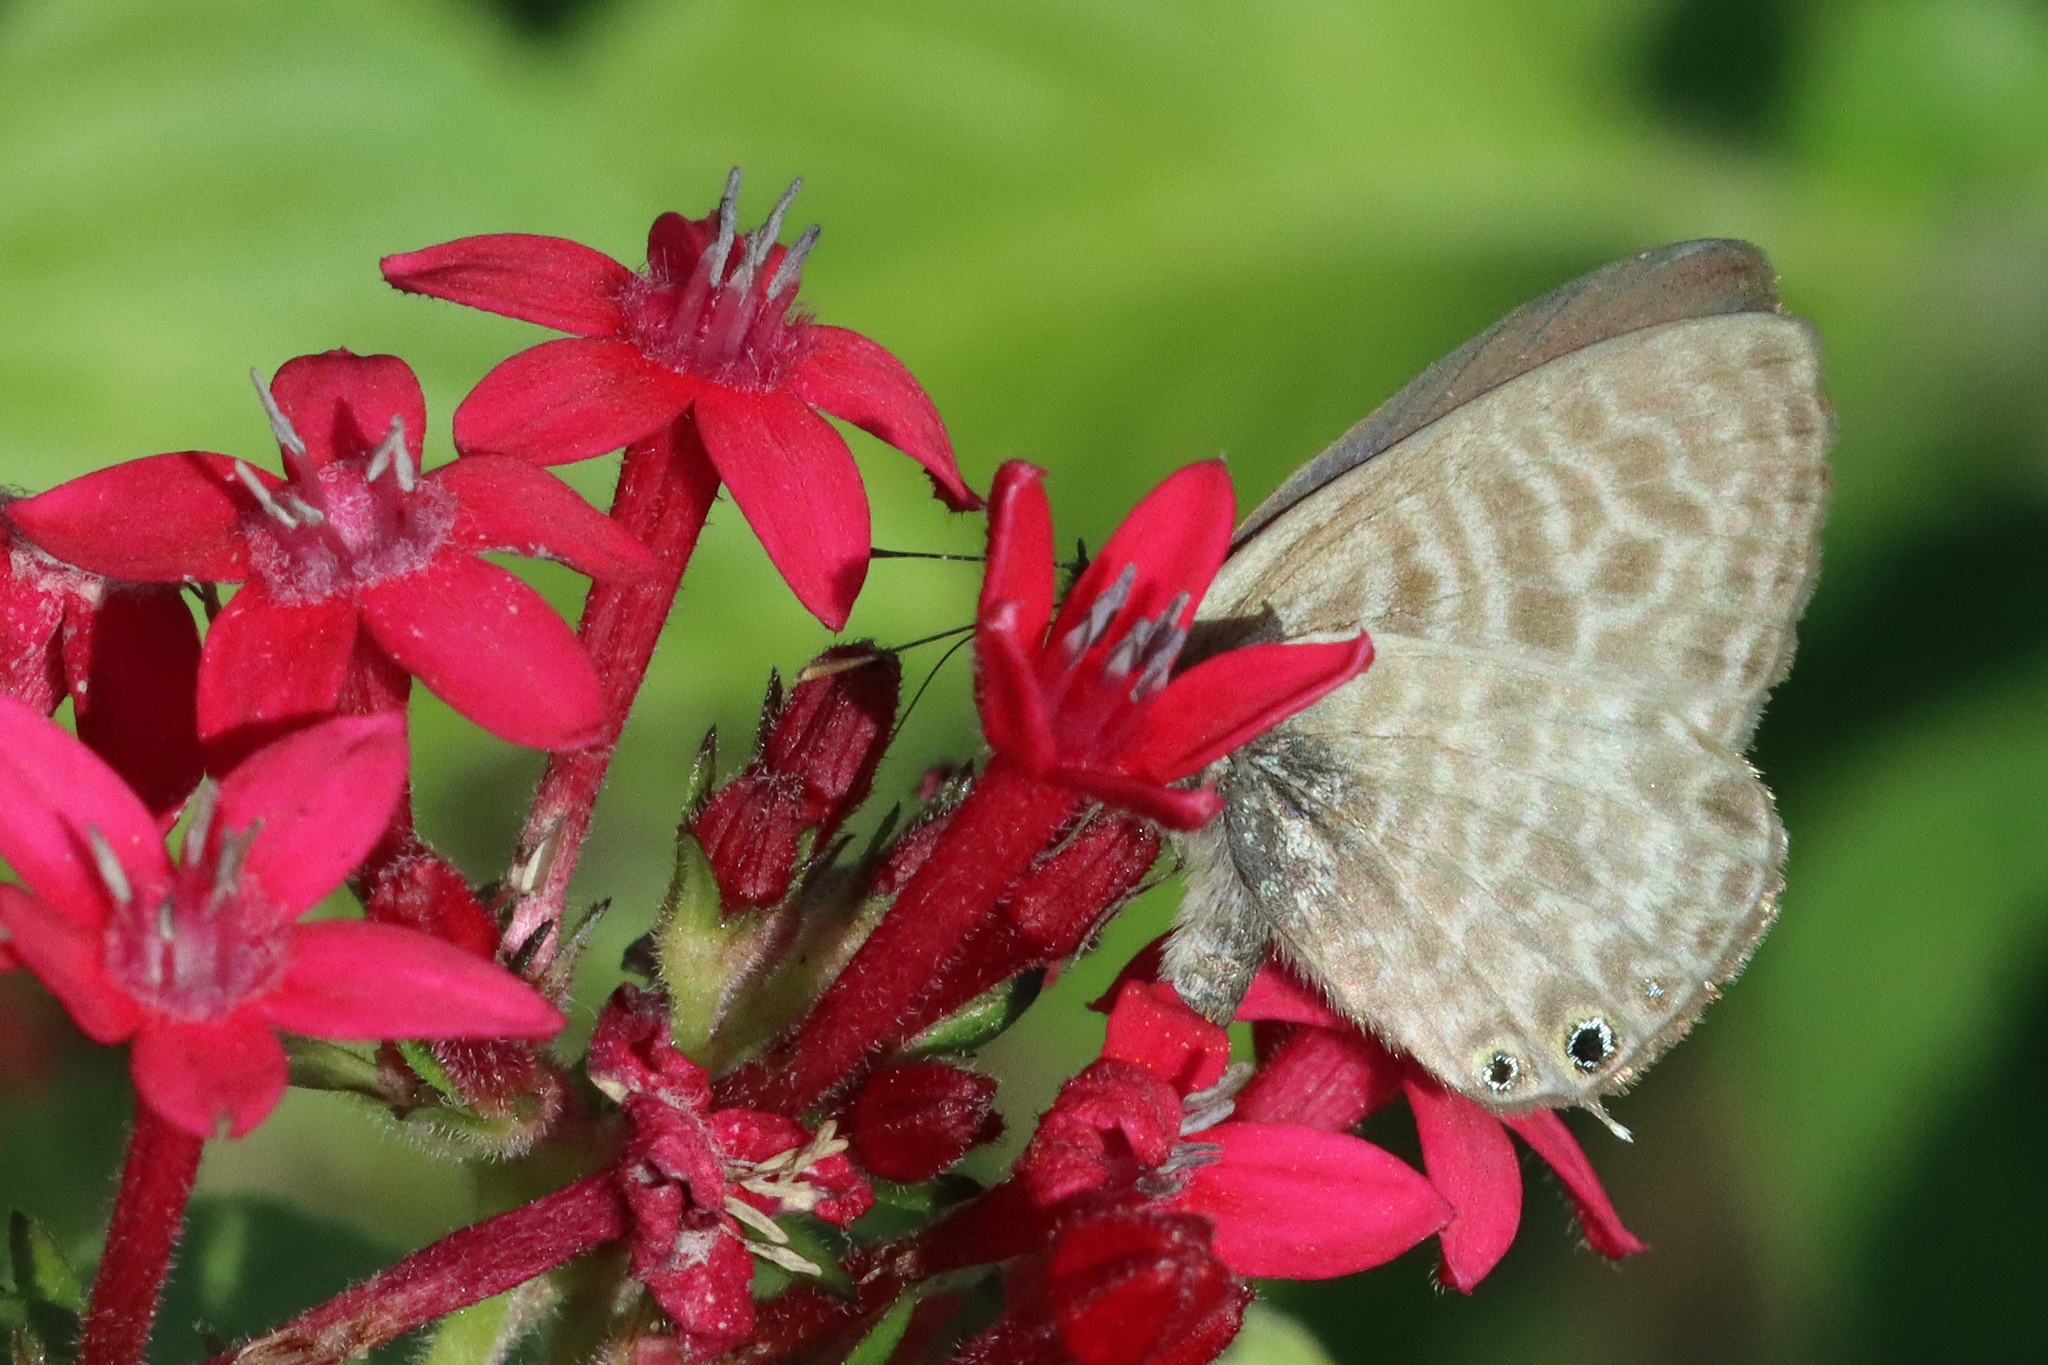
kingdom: Animalia
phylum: Arthropoda
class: Insecta
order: Lepidoptera
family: Lycaenidae
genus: Leptotes
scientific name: Leptotes pirithous
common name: Lang's short-tailed blue
